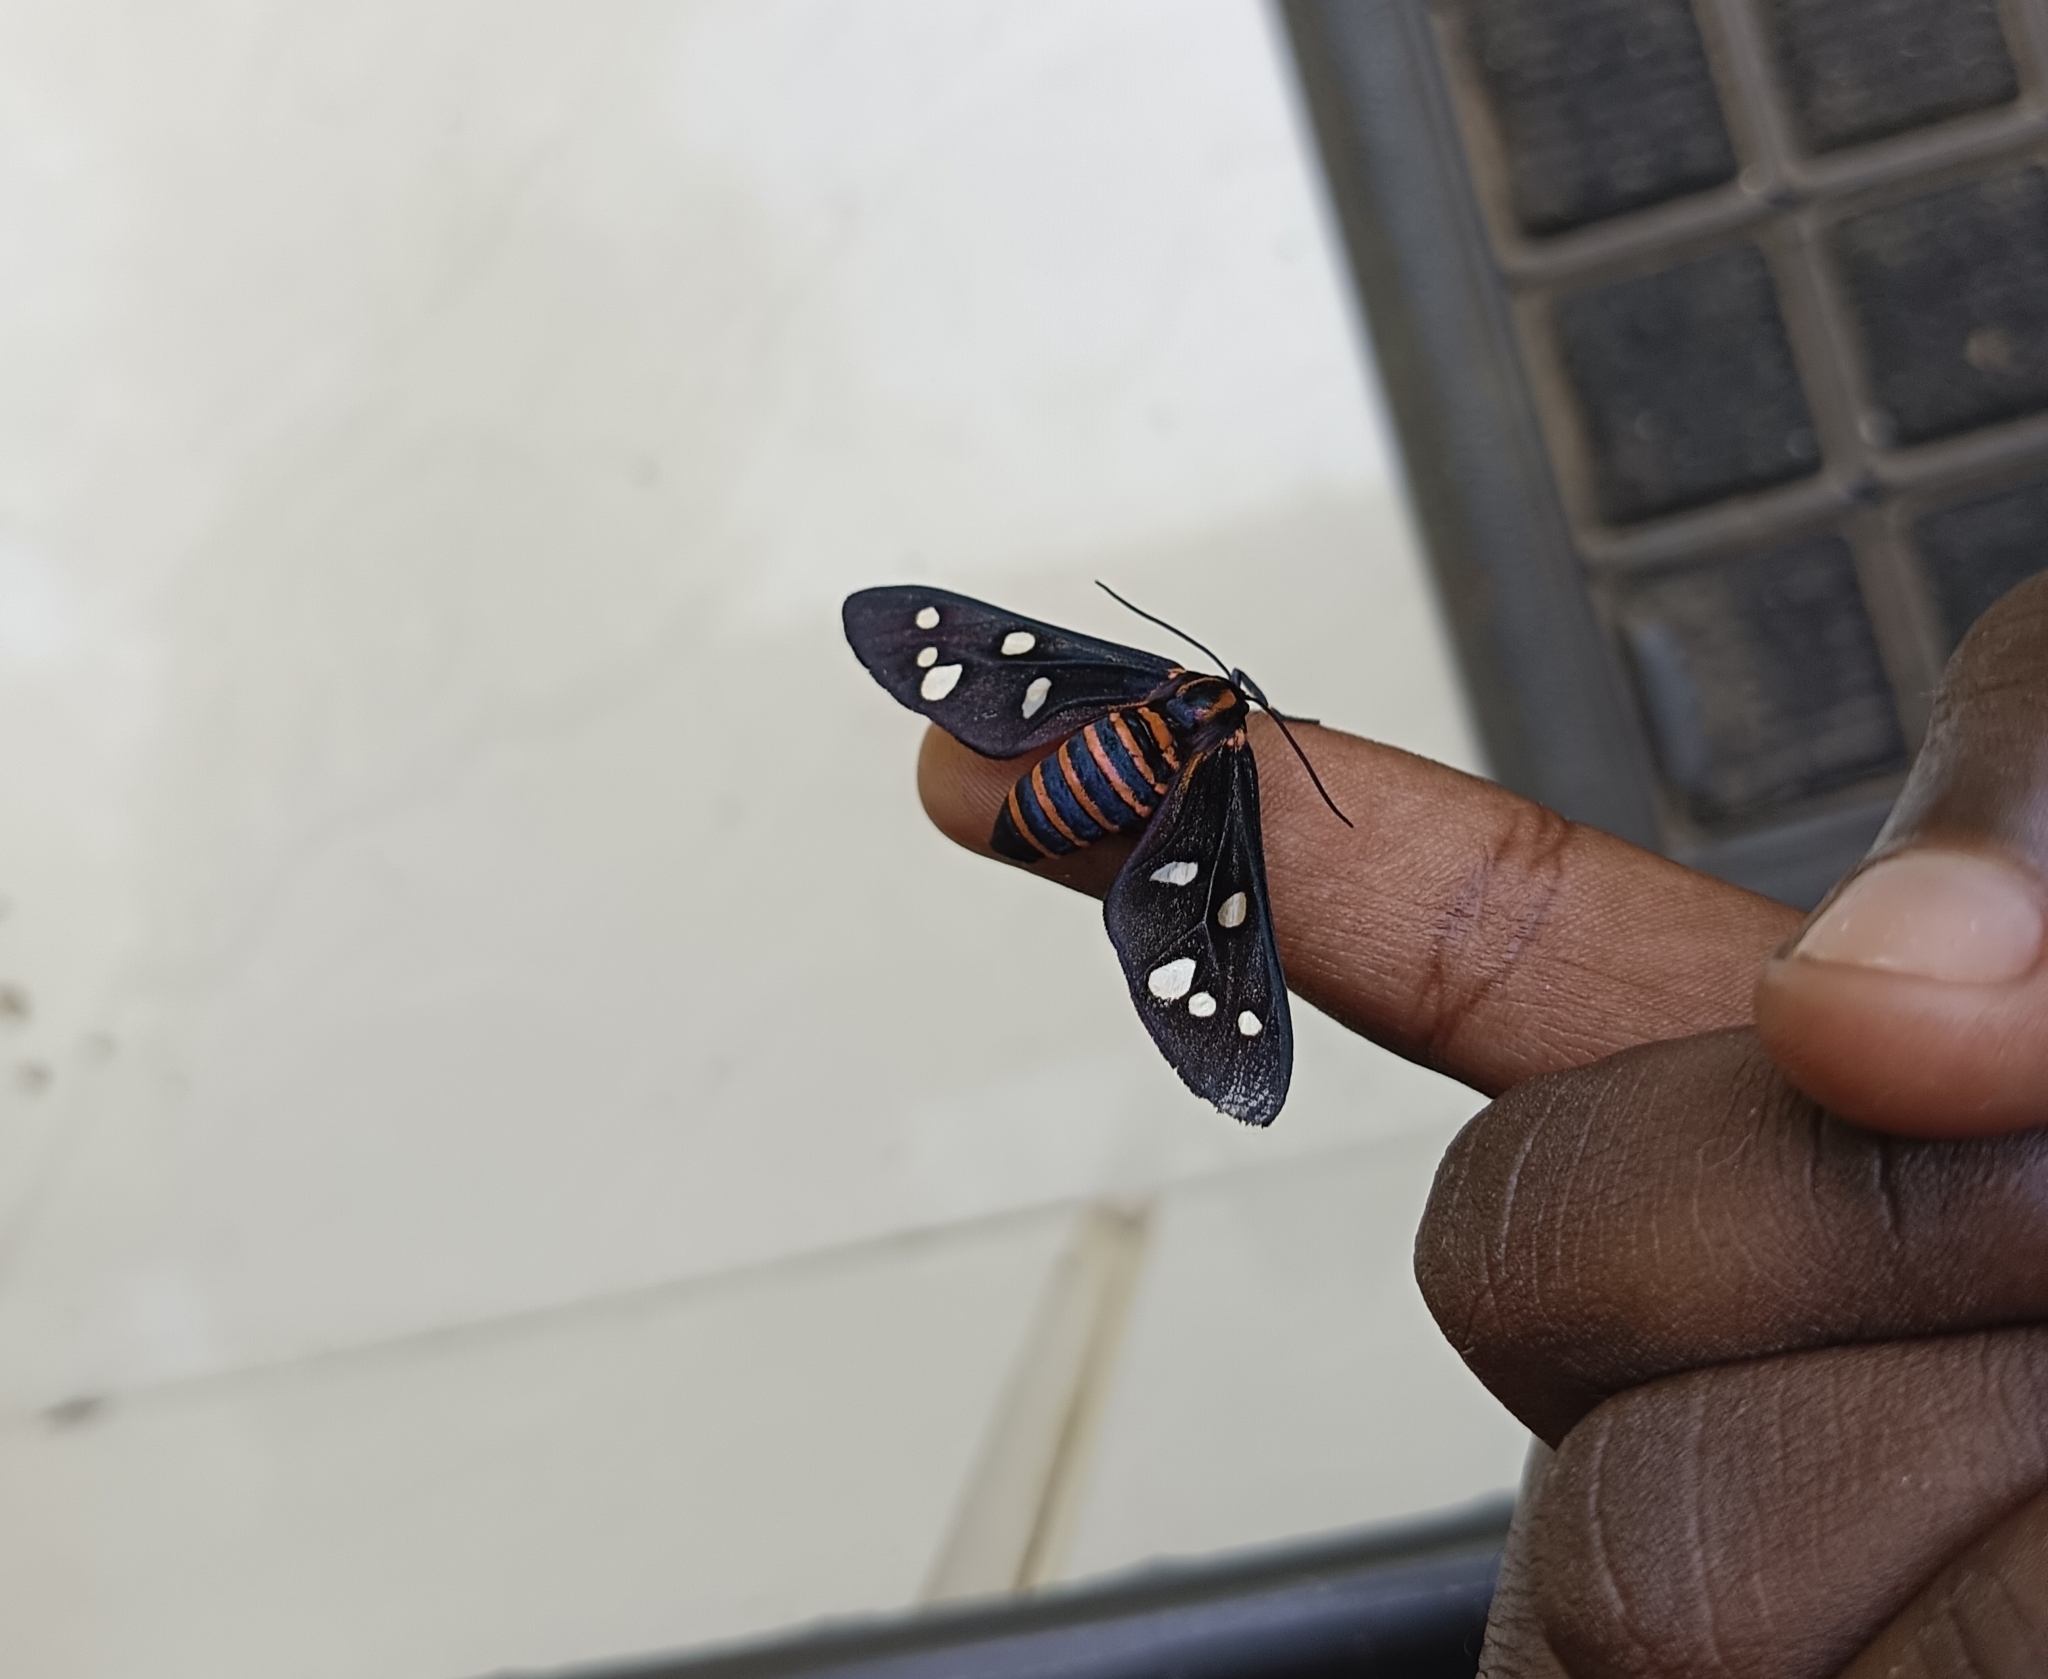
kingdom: Animalia
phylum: Arthropoda
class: Insecta
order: Lepidoptera
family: Erebidae
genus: Amata
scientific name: Amata passalis
